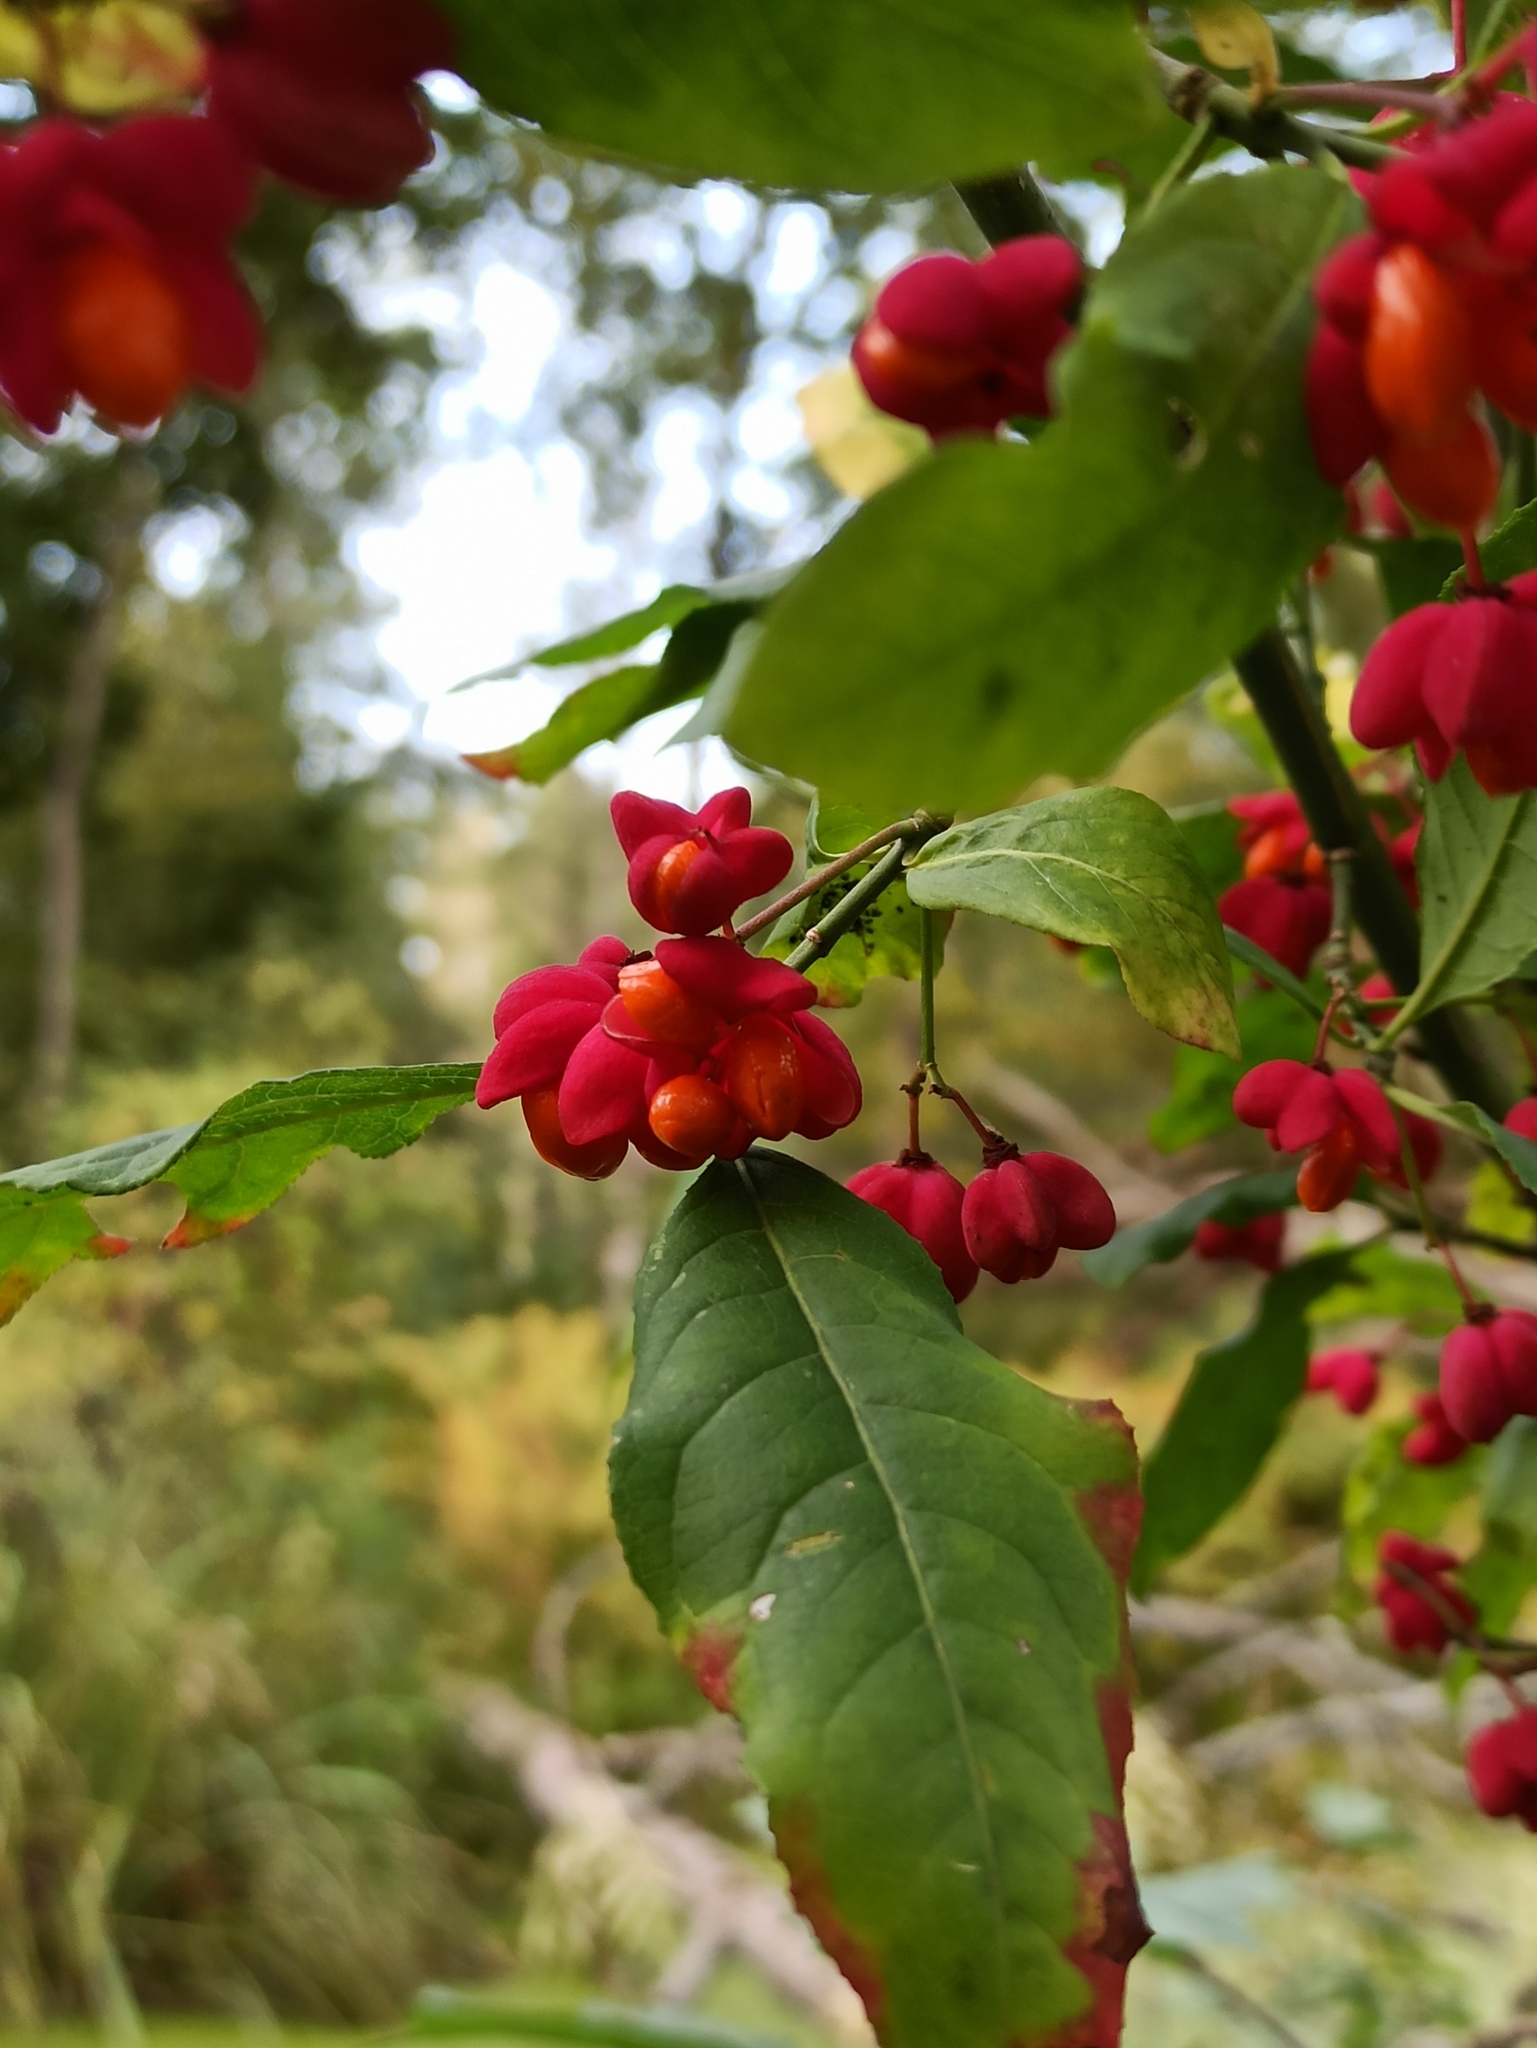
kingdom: Plantae
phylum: Tracheophyta
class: Magnoliopsida
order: Celastrales
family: Celastraceae
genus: Euonymus
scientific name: Euonymus europaeus
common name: Spindle
